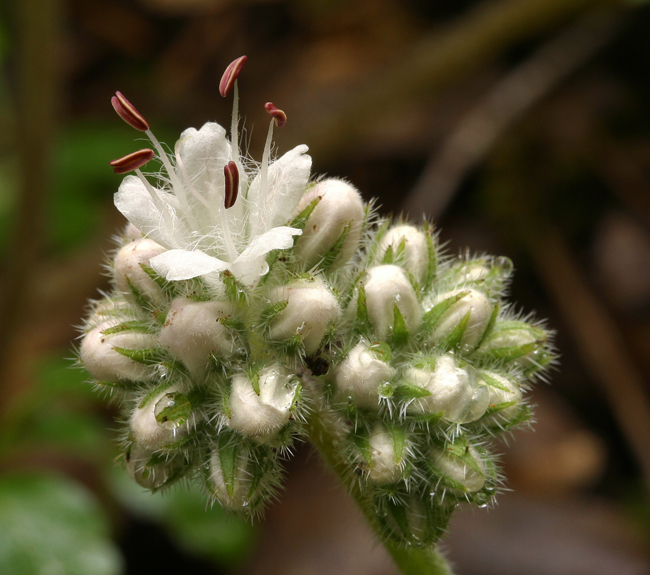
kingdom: Plantae
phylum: Tracheophyta
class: Magnoliopsida
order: Boraginales
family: Hydrophyllaceae
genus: Hydrophyllum
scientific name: Hydrophyllum occidentale
